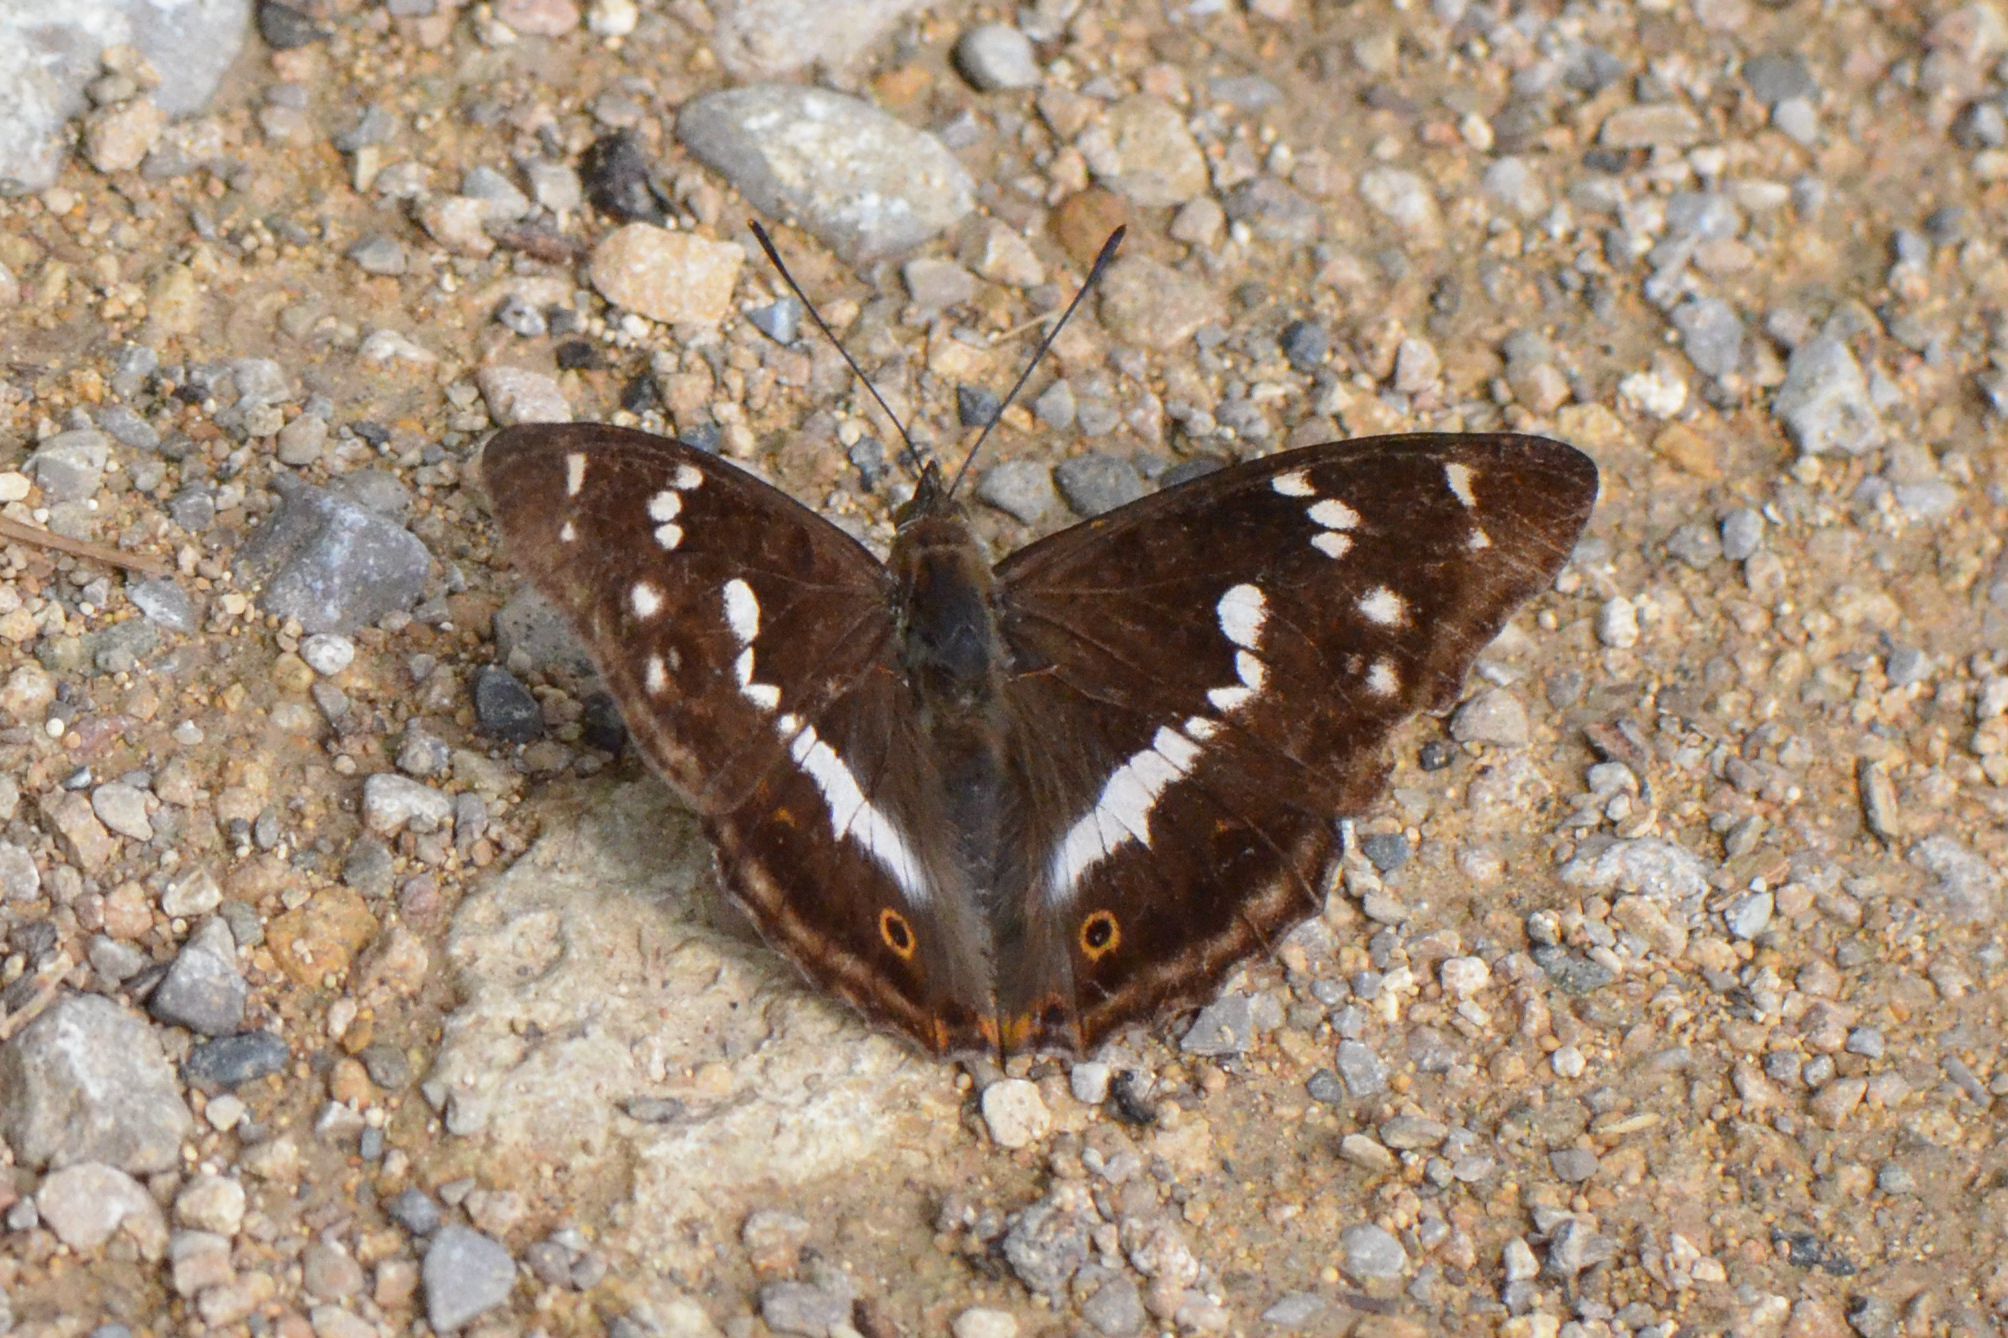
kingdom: Animalia
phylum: Arthropoda
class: Insecta
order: Lepidoptera
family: Nymphalidae
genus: Apatura
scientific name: Apatura iris
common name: Purple emperor
